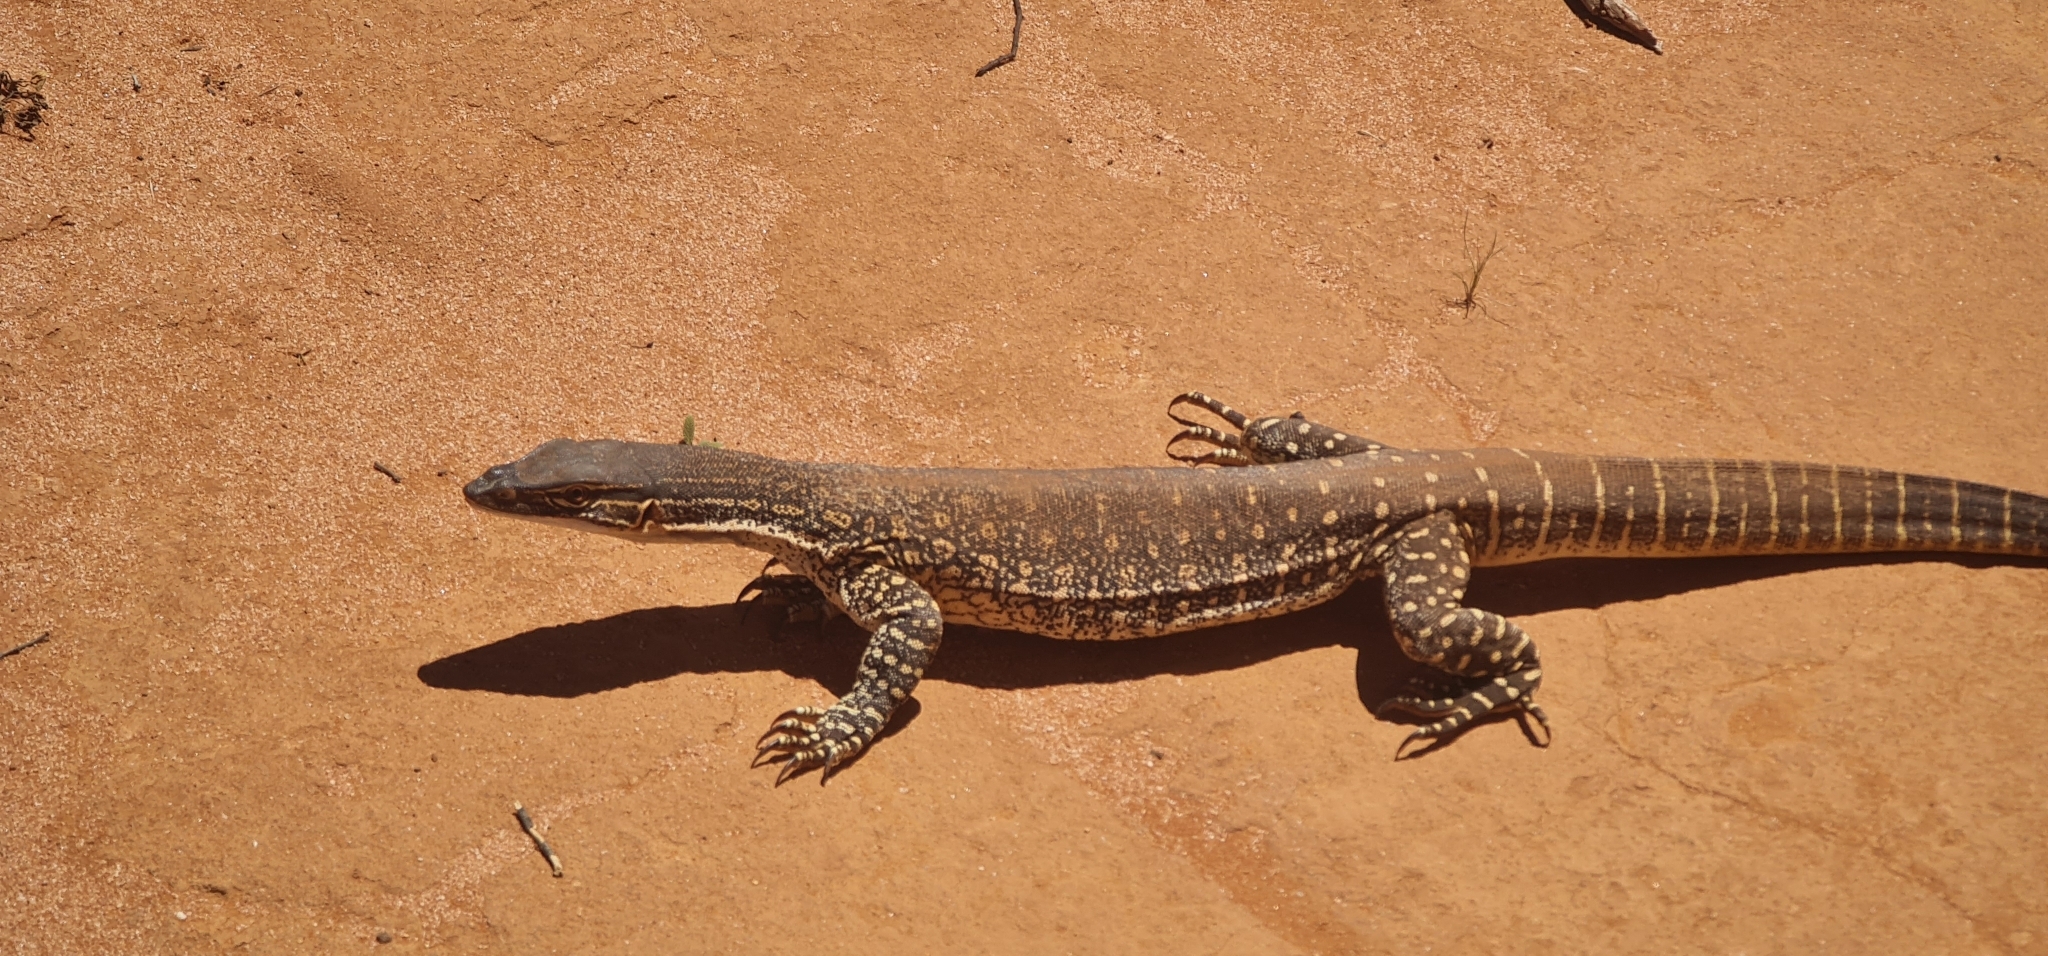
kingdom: Animalia
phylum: Chordata
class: Squamata
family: Varanidae
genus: Varanus
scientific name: Varanus gouldii
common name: Gould's goanna
